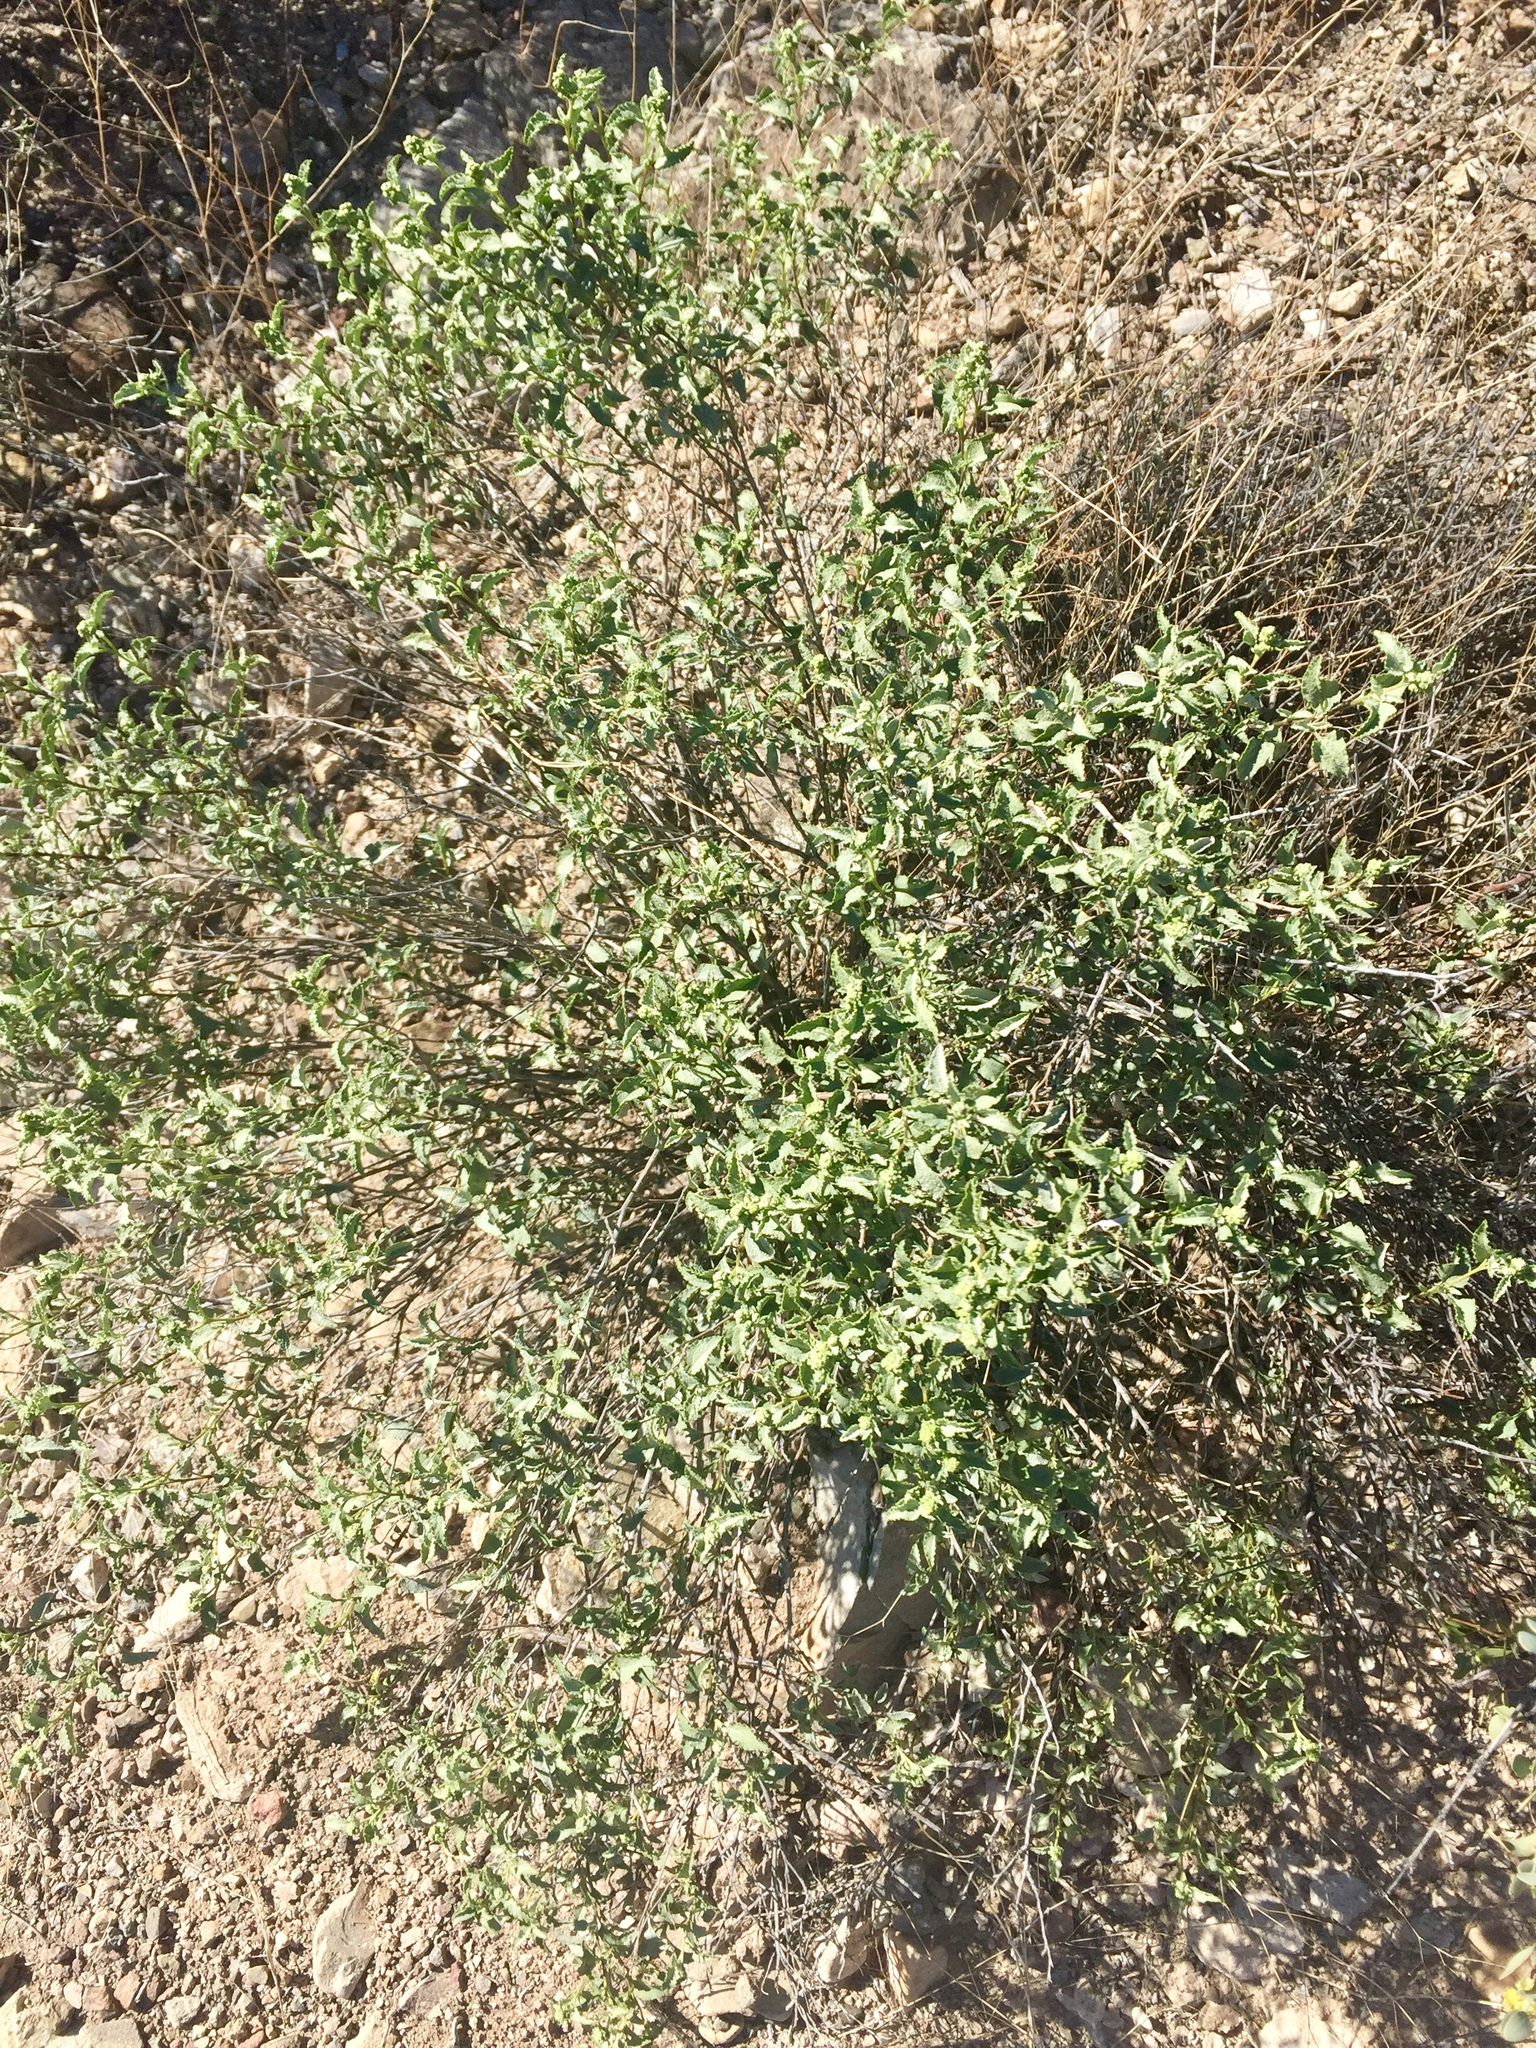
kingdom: Plantae
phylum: Tracheophyta
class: Magnoliopsida
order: Asterales
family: Asteraceae
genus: Ambrosia
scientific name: Ambrosia deltoidea
